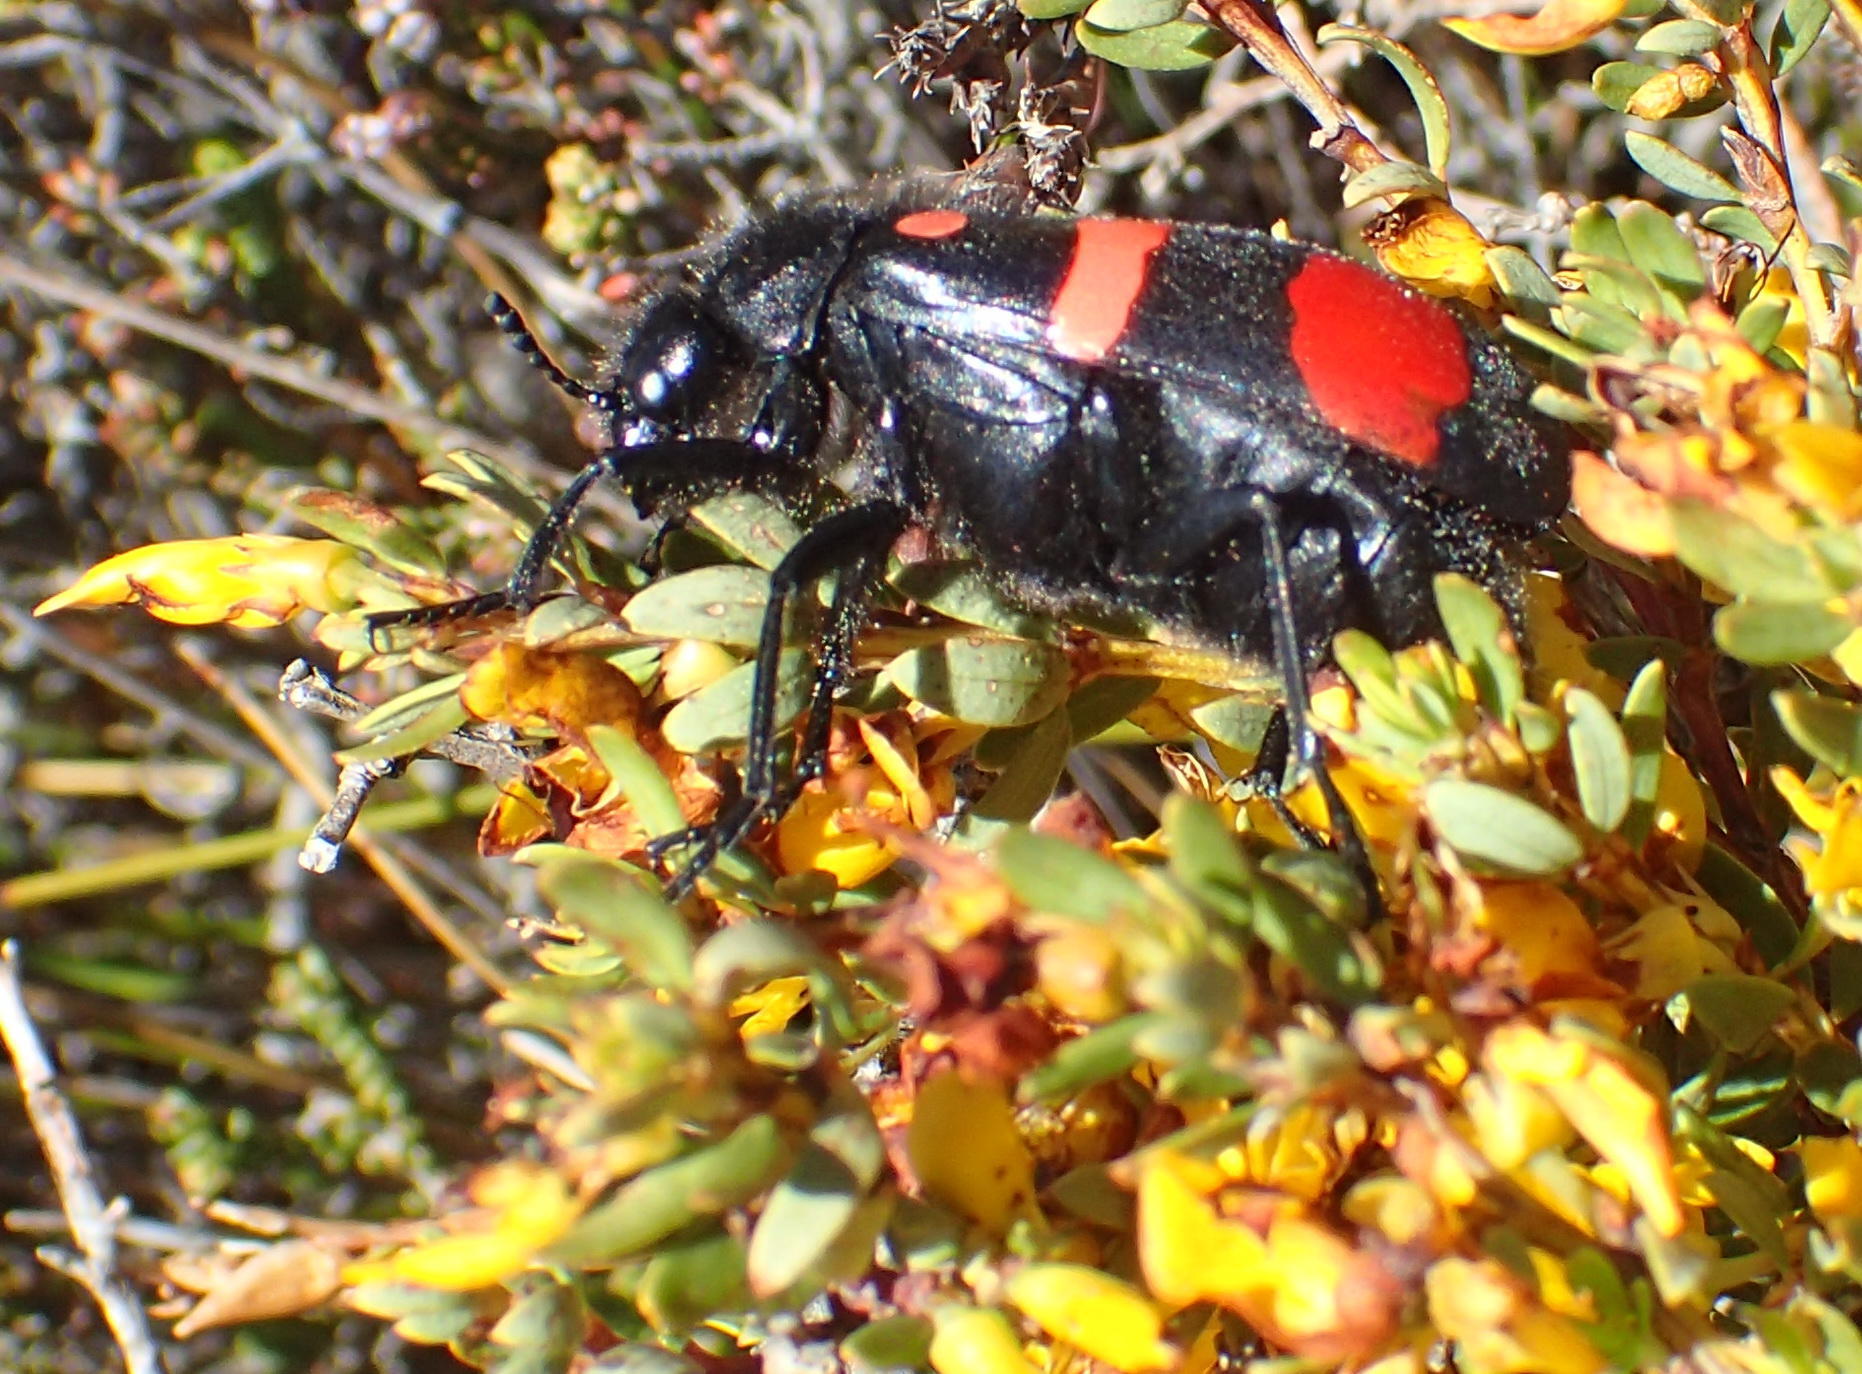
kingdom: Animalia
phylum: Arthropoda
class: Insecta
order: Coleoptera
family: Meloidae
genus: Hycleus
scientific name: Hycleus lavaterae
